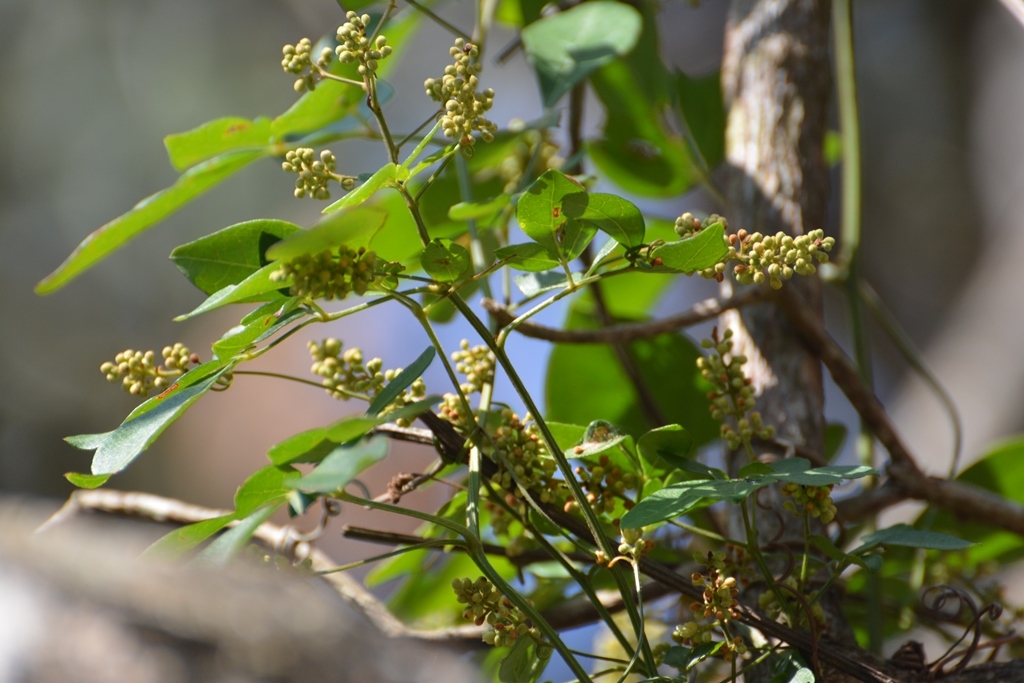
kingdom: Plantae
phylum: Tracheophyta
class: Magnoliopsida
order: Sapindales
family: Sapindaceae
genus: Serjania
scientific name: Serjania mexicana
